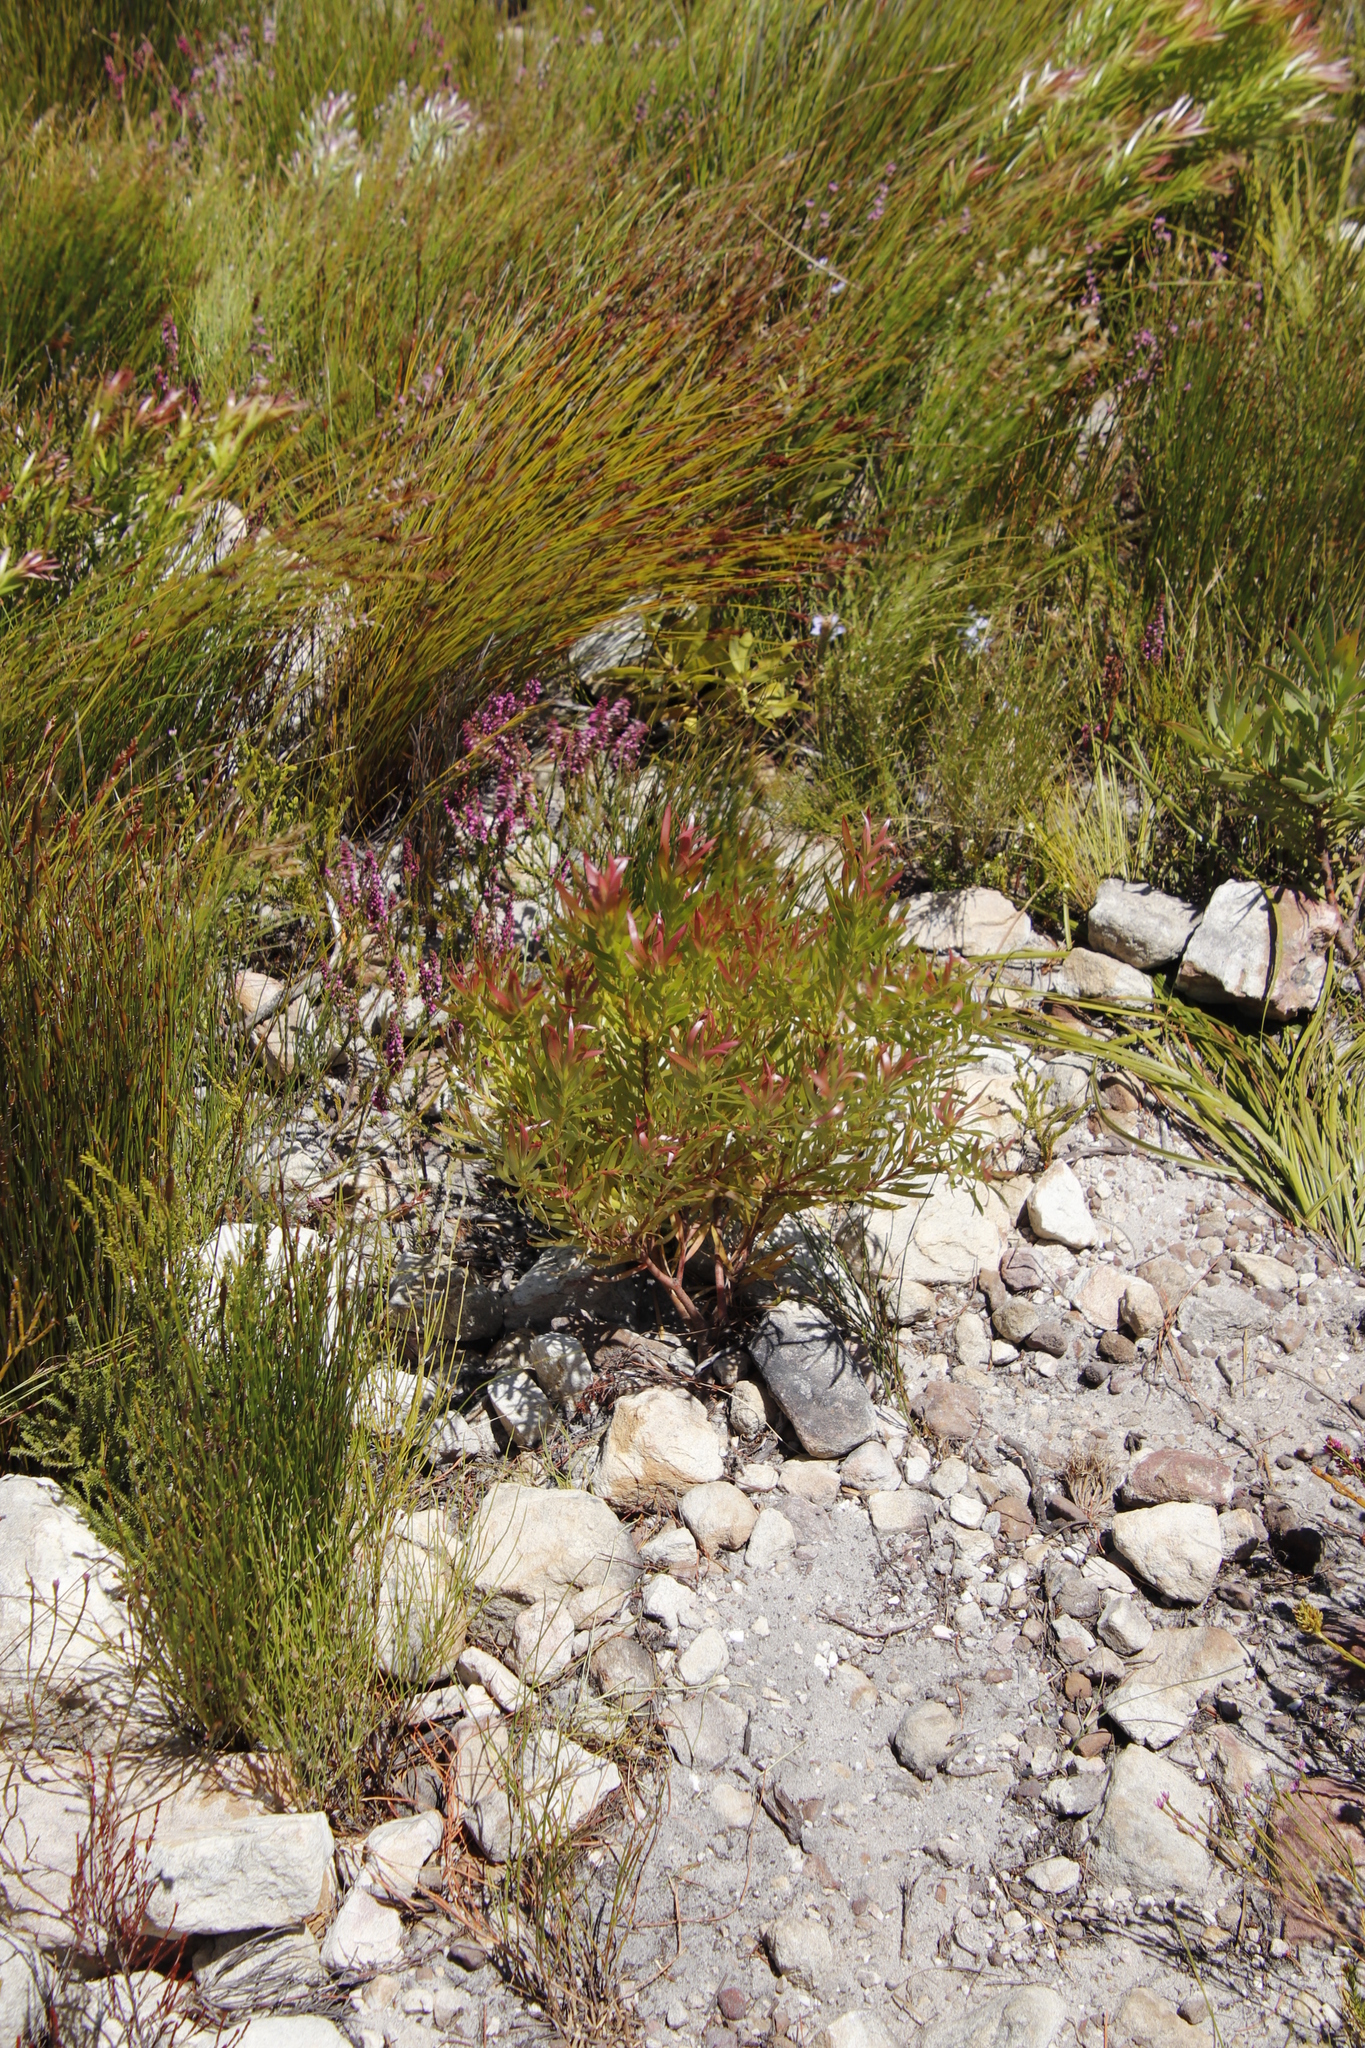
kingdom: Plantae
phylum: Tracheophyta
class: Magnoliopsida
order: Proteales
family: Proteaceae
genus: Leucadendron
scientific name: Leucadendron xanthoconus
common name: Sickle-leaf conebush
